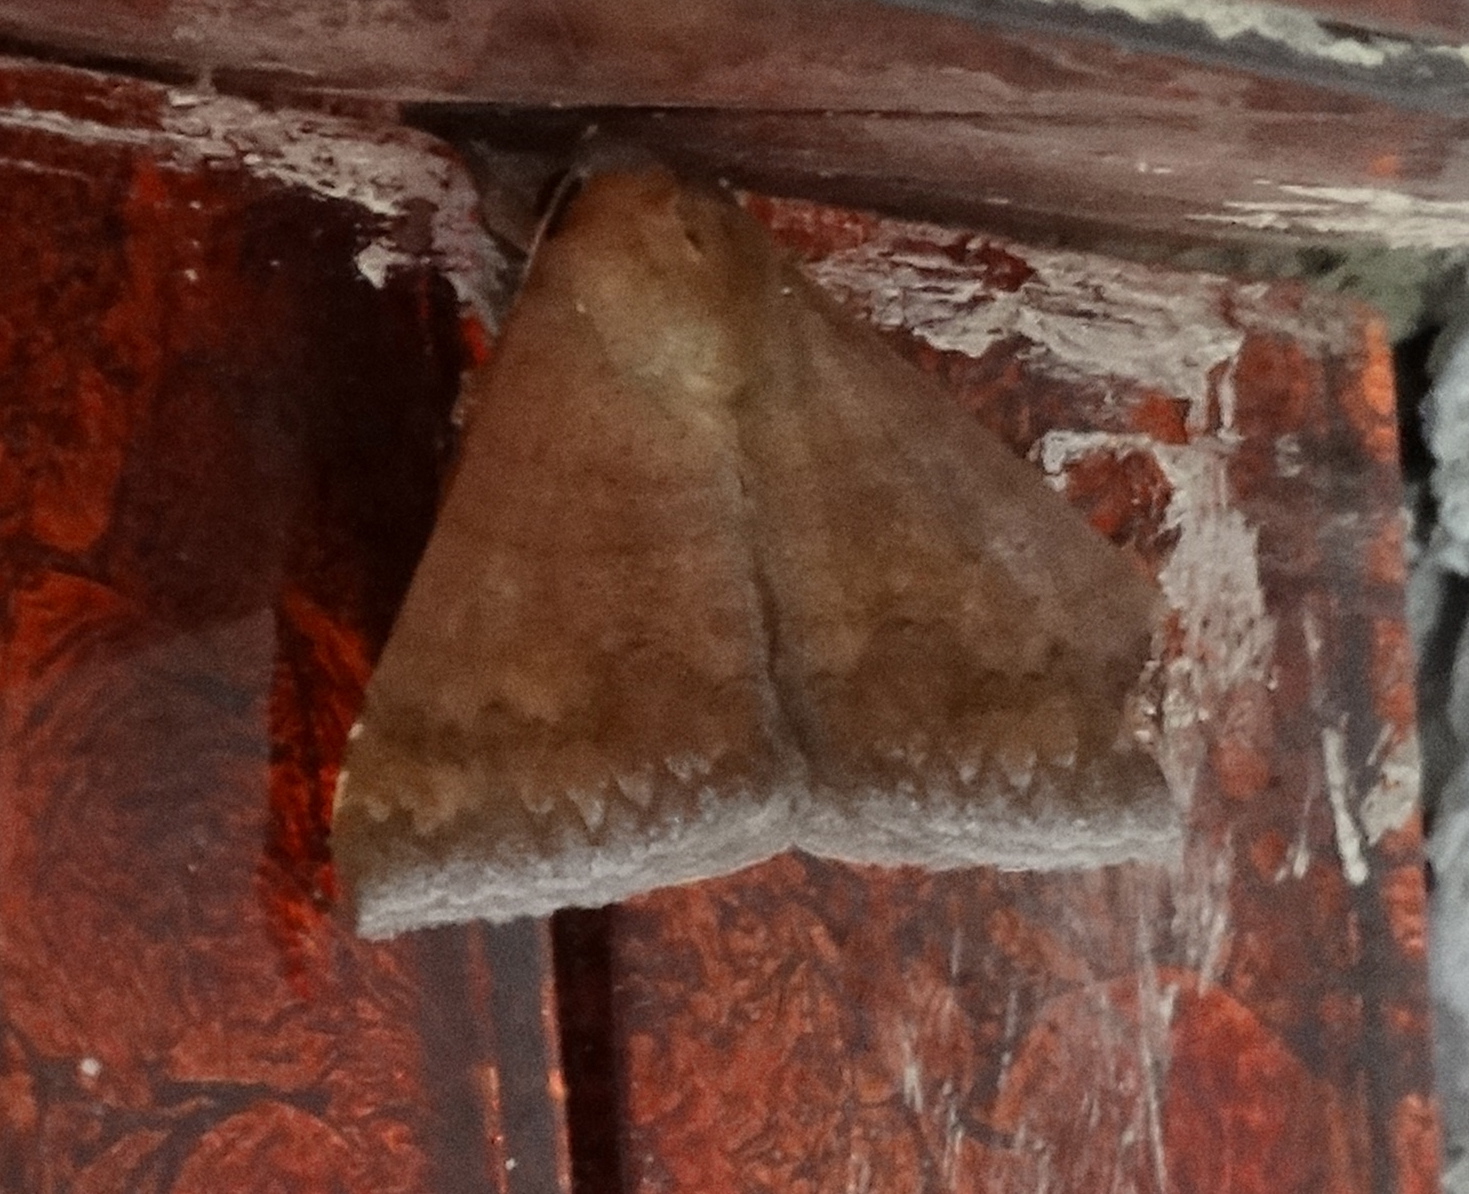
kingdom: Animalia
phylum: Arthropoda
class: Insecta
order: Lepidoptera
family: Erebidae
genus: Achaea
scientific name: Achaea
